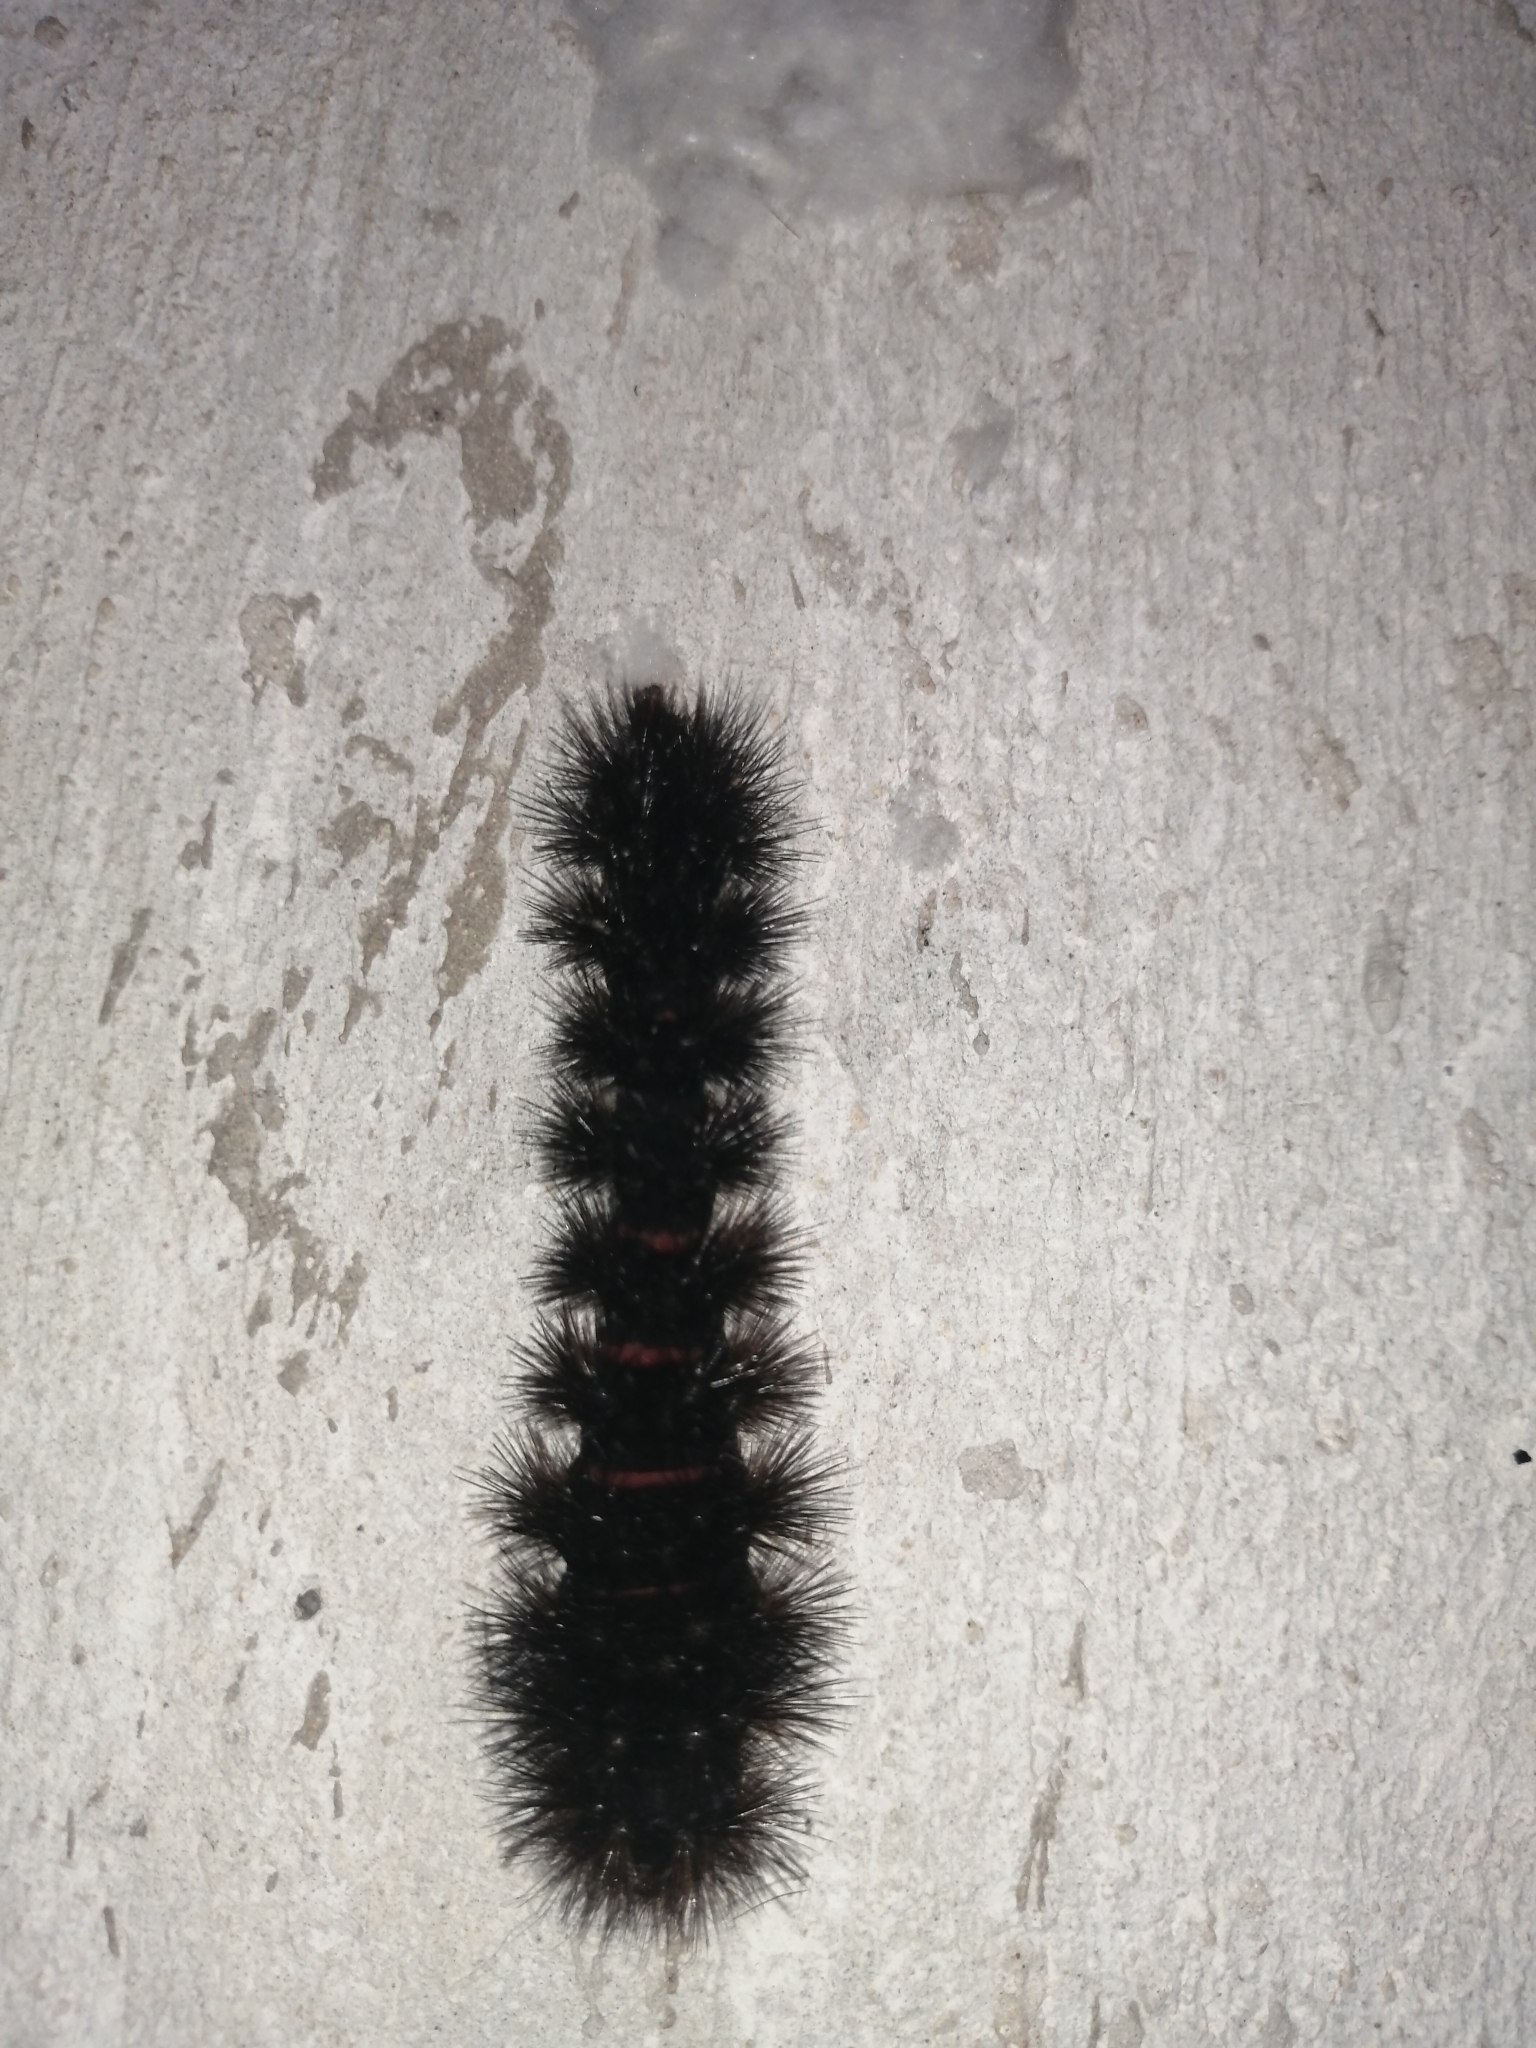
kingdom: Animalia
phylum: Arthropoda
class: Insecta
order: Lepidoptera
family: Erebidae
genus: Hypercompe
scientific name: Hypercompe scribonia
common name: Giant leopard moth
